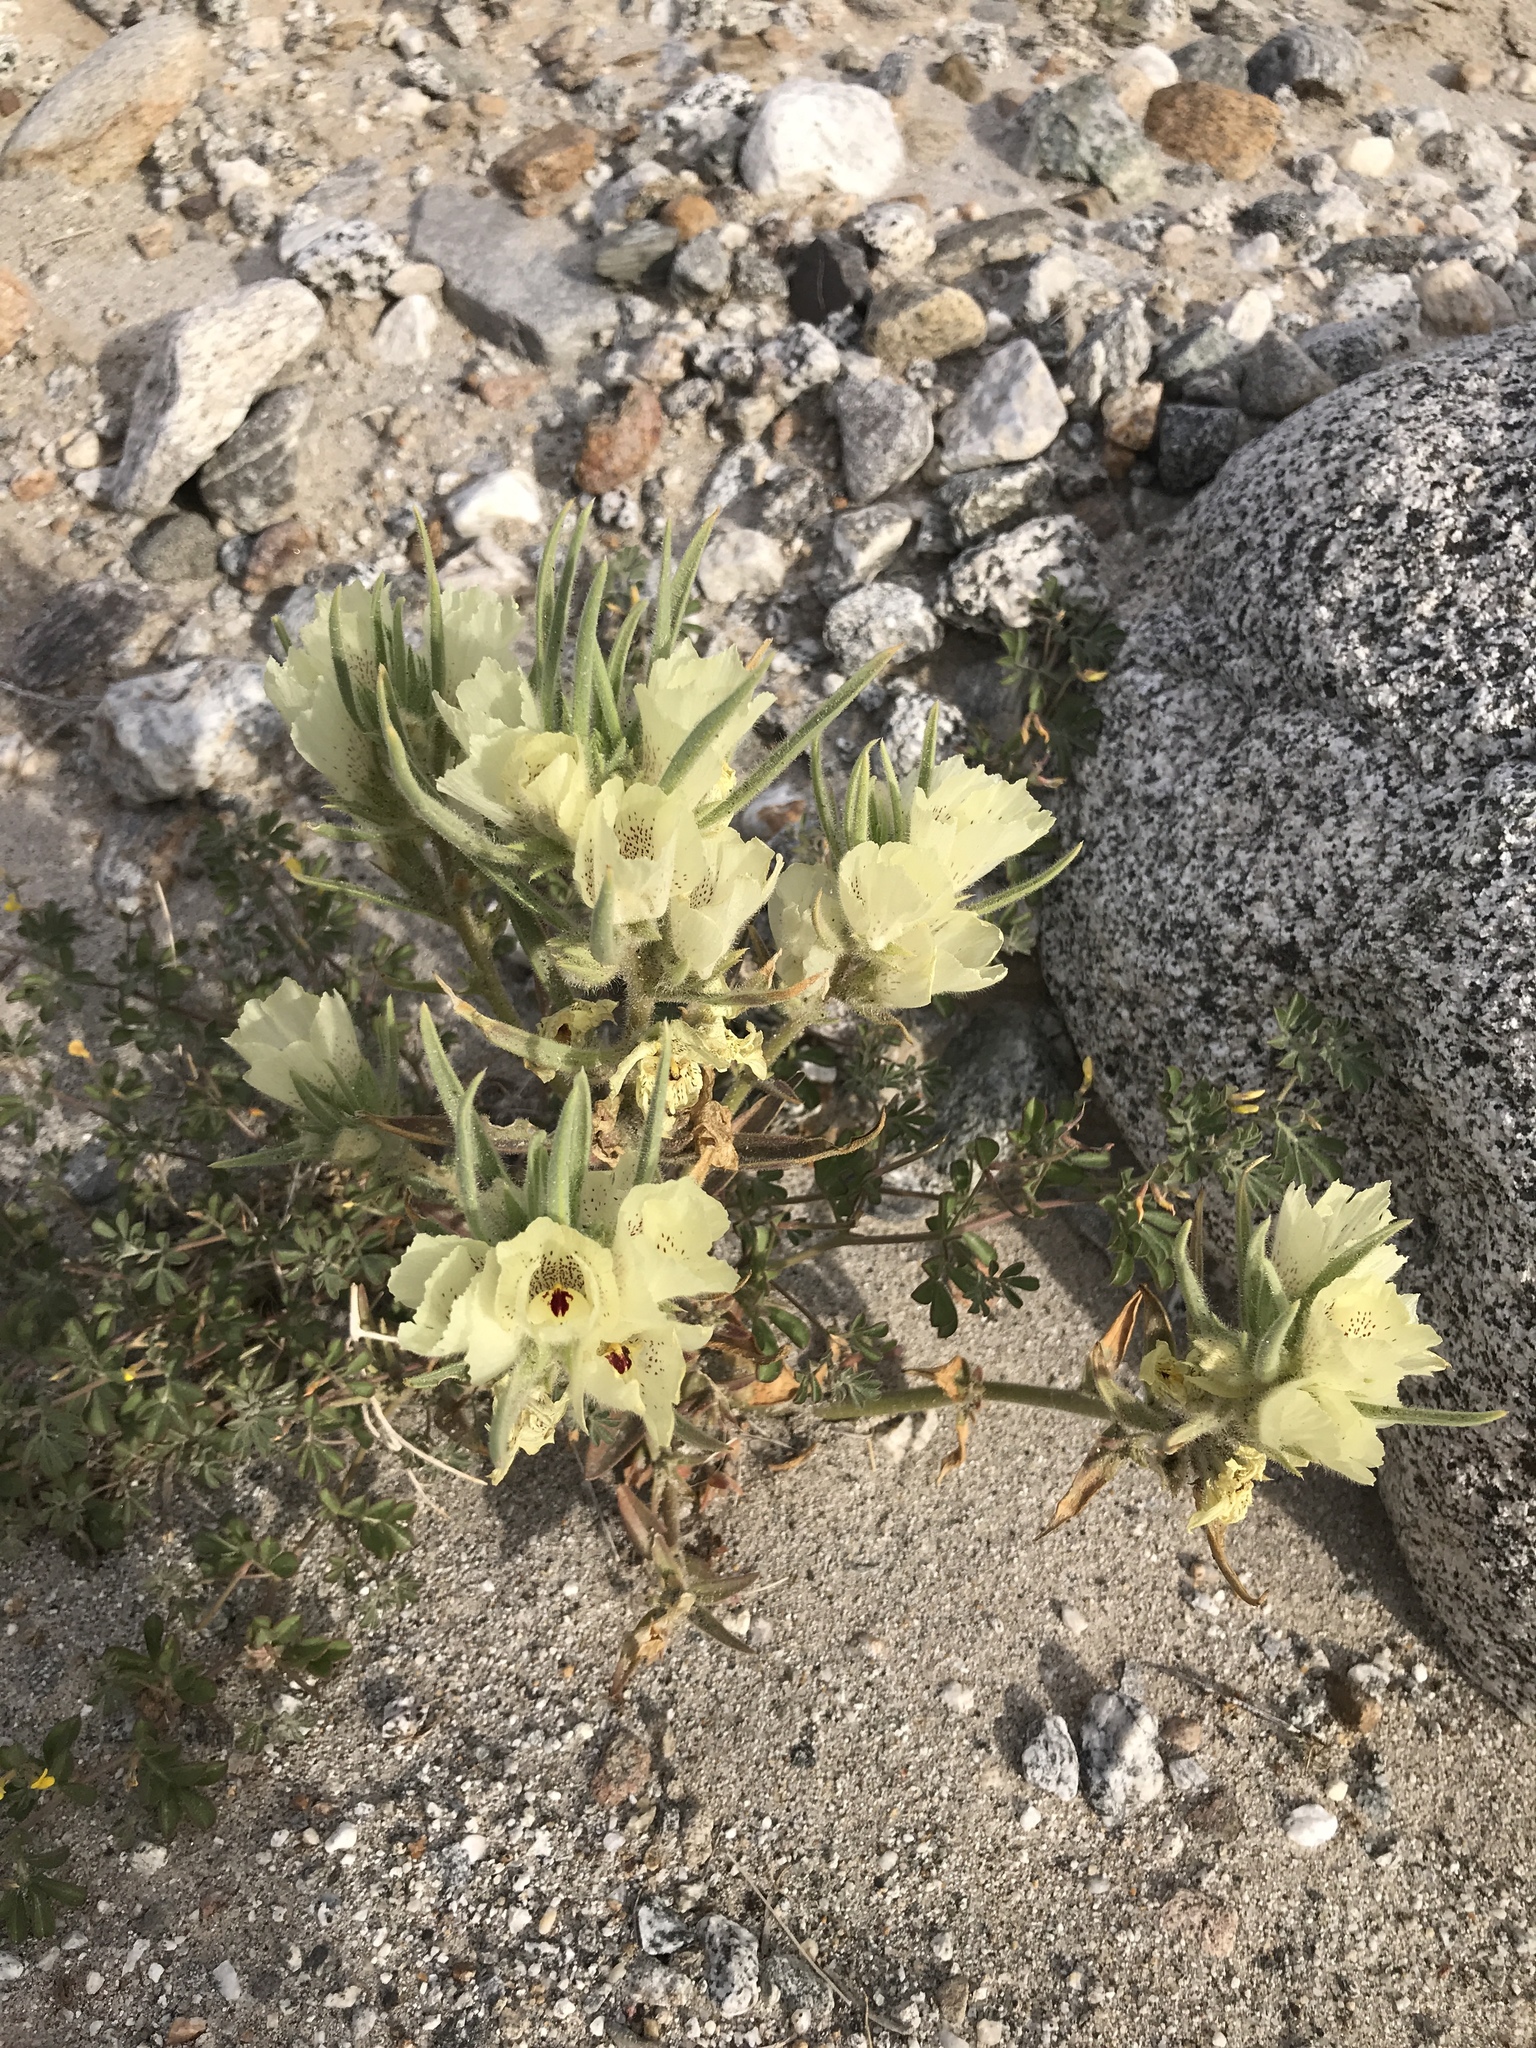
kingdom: Plantae
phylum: Tracheophyta
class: Magnoliopsida
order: Lamiales
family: Plantaginaceae
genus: Mohavea
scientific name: Mohavea confertiflora
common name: Ghost flower
